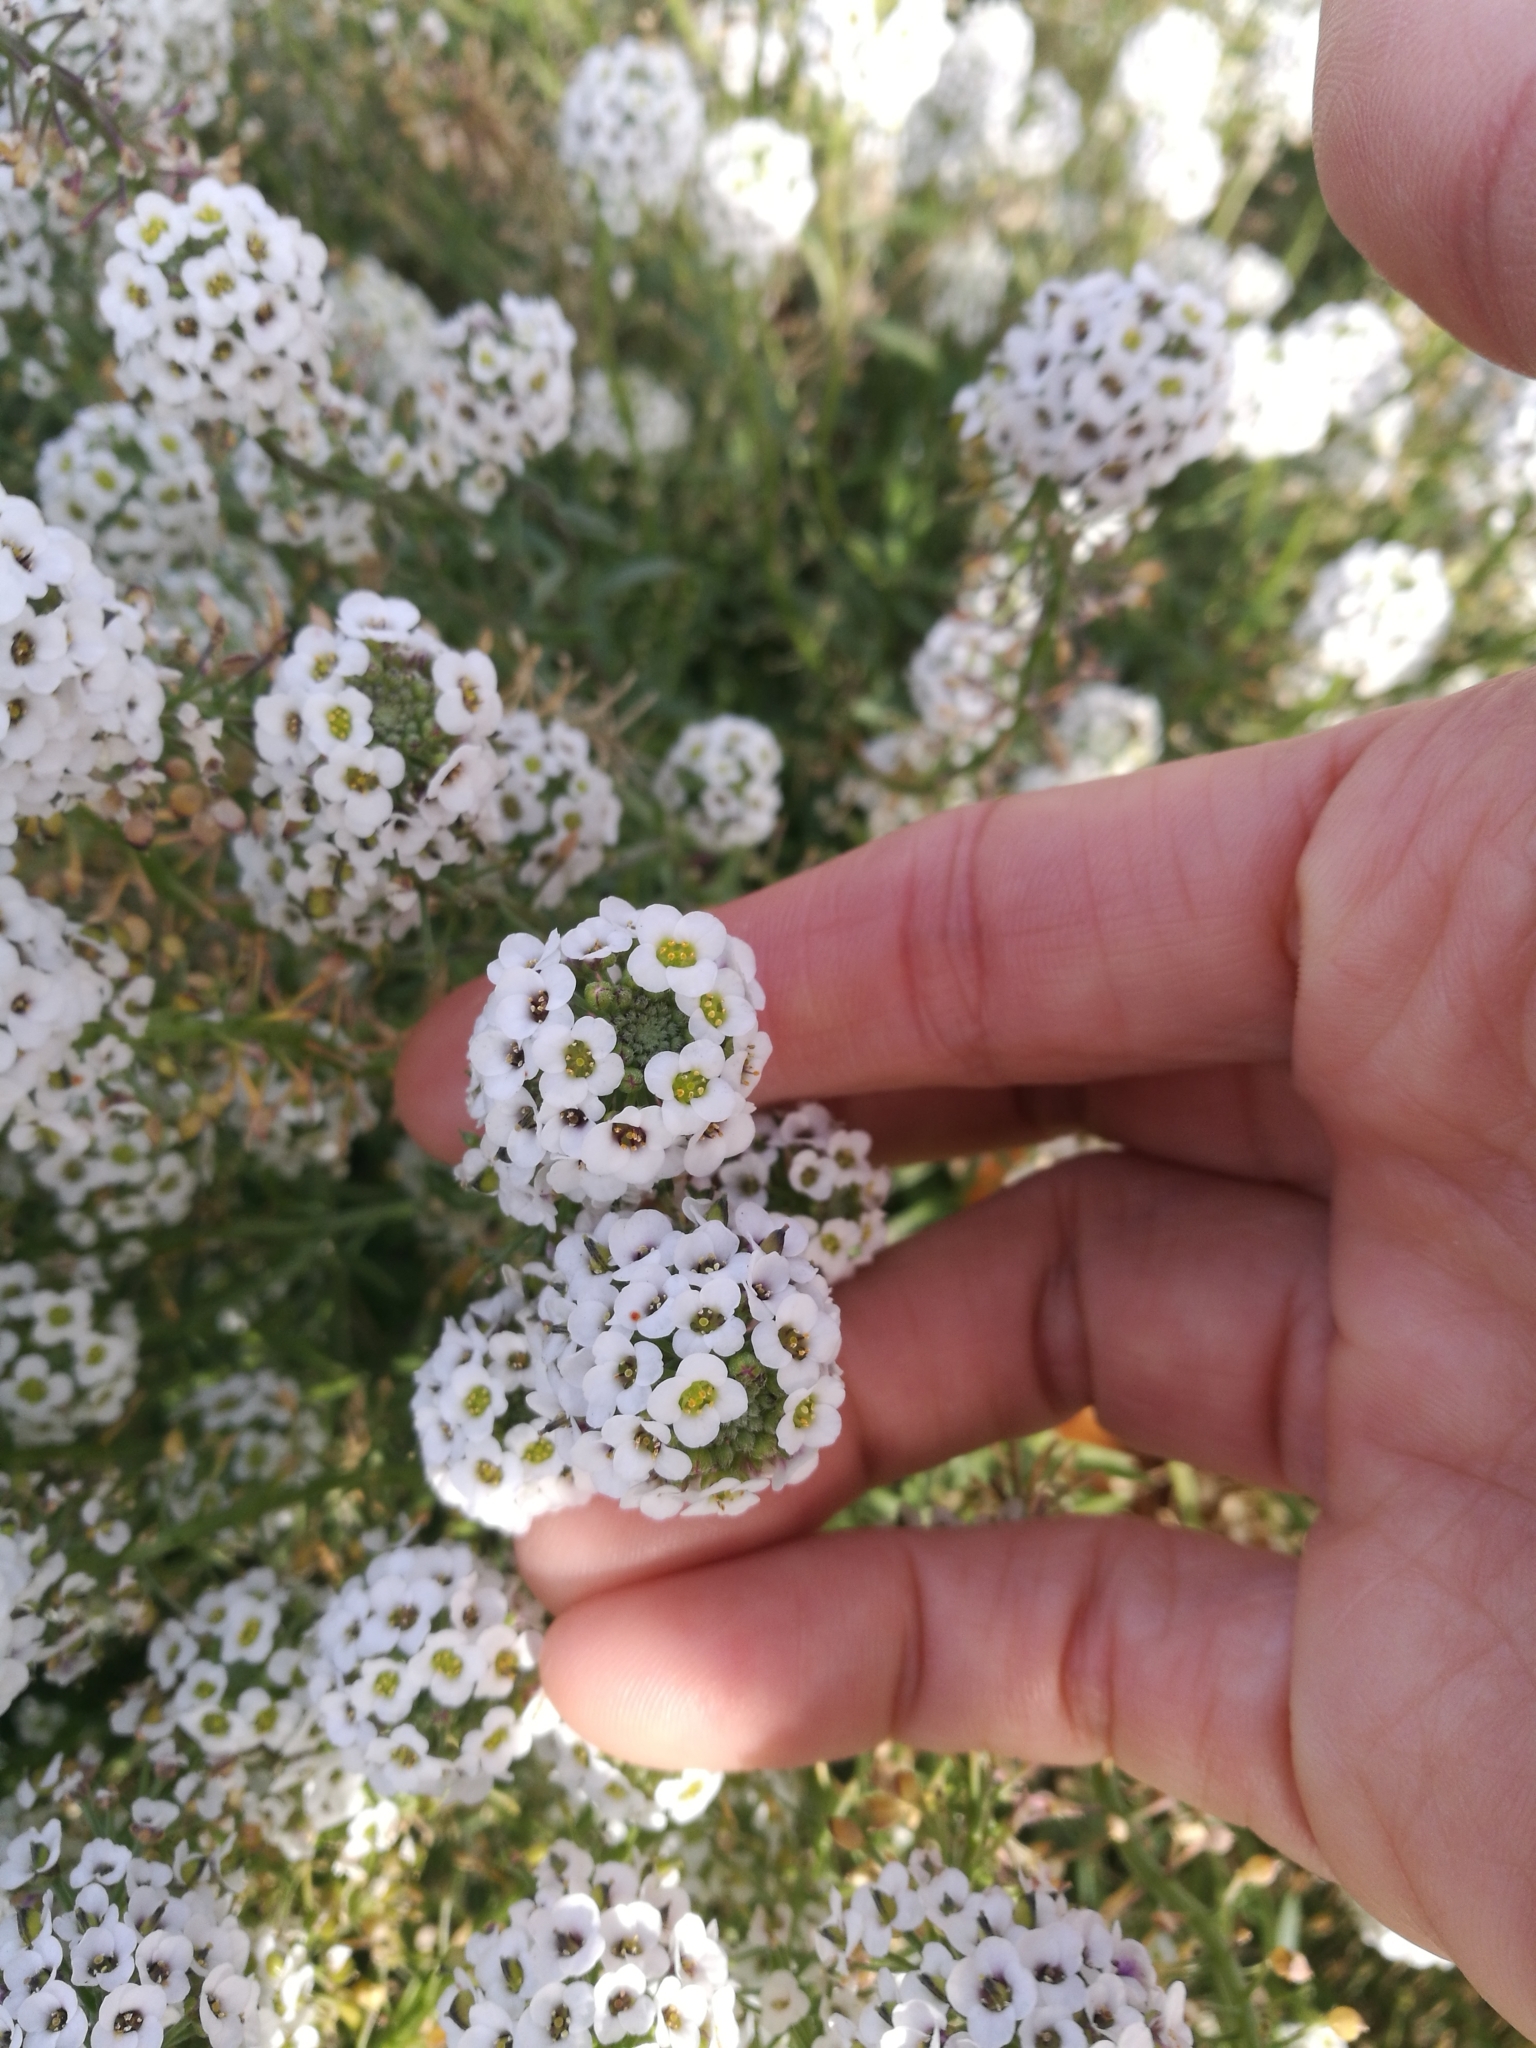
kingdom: Plantae
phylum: Tracheophyta
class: Magnoliopsida
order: Brassicales
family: Brassicaceae
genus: Lobularia
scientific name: Lobularia maritima
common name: Sweet alison
